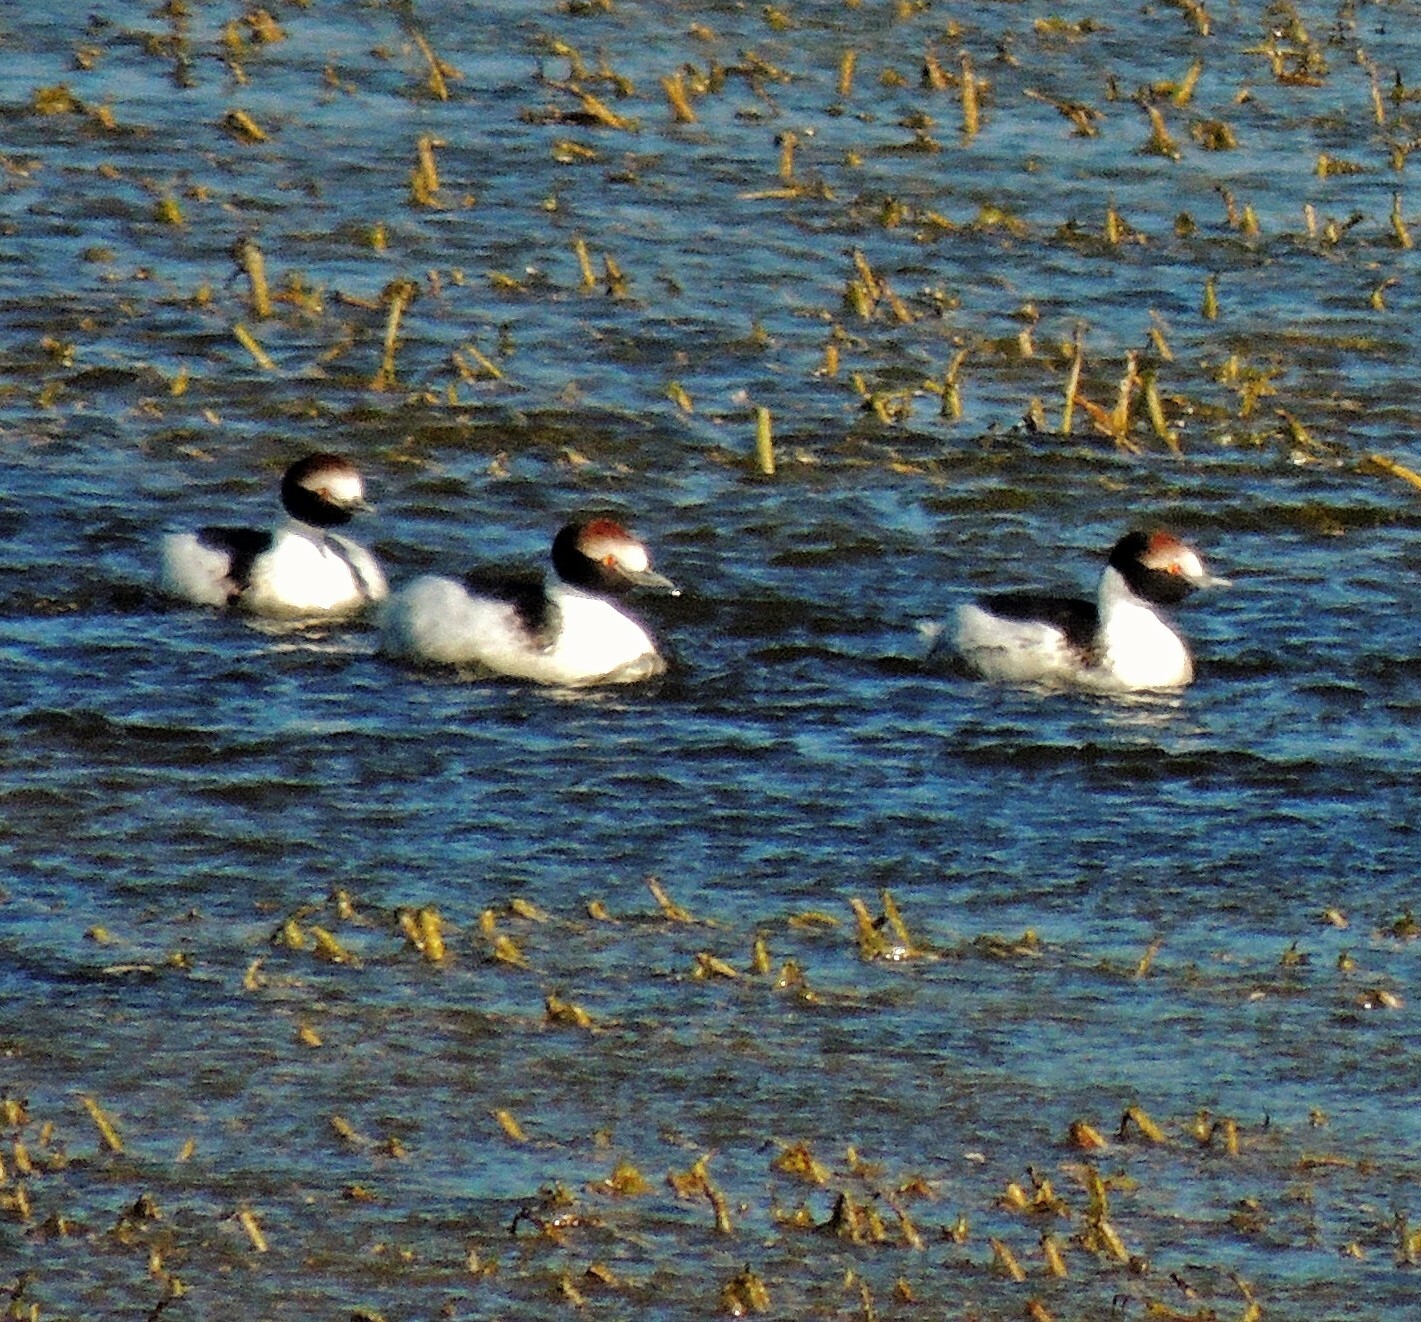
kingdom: Animalia
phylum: Chordata
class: Aves
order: Podicipediformes
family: Podicipedidae
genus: Podiceps
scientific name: Podiceps gallardoi
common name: Hooded grebe
